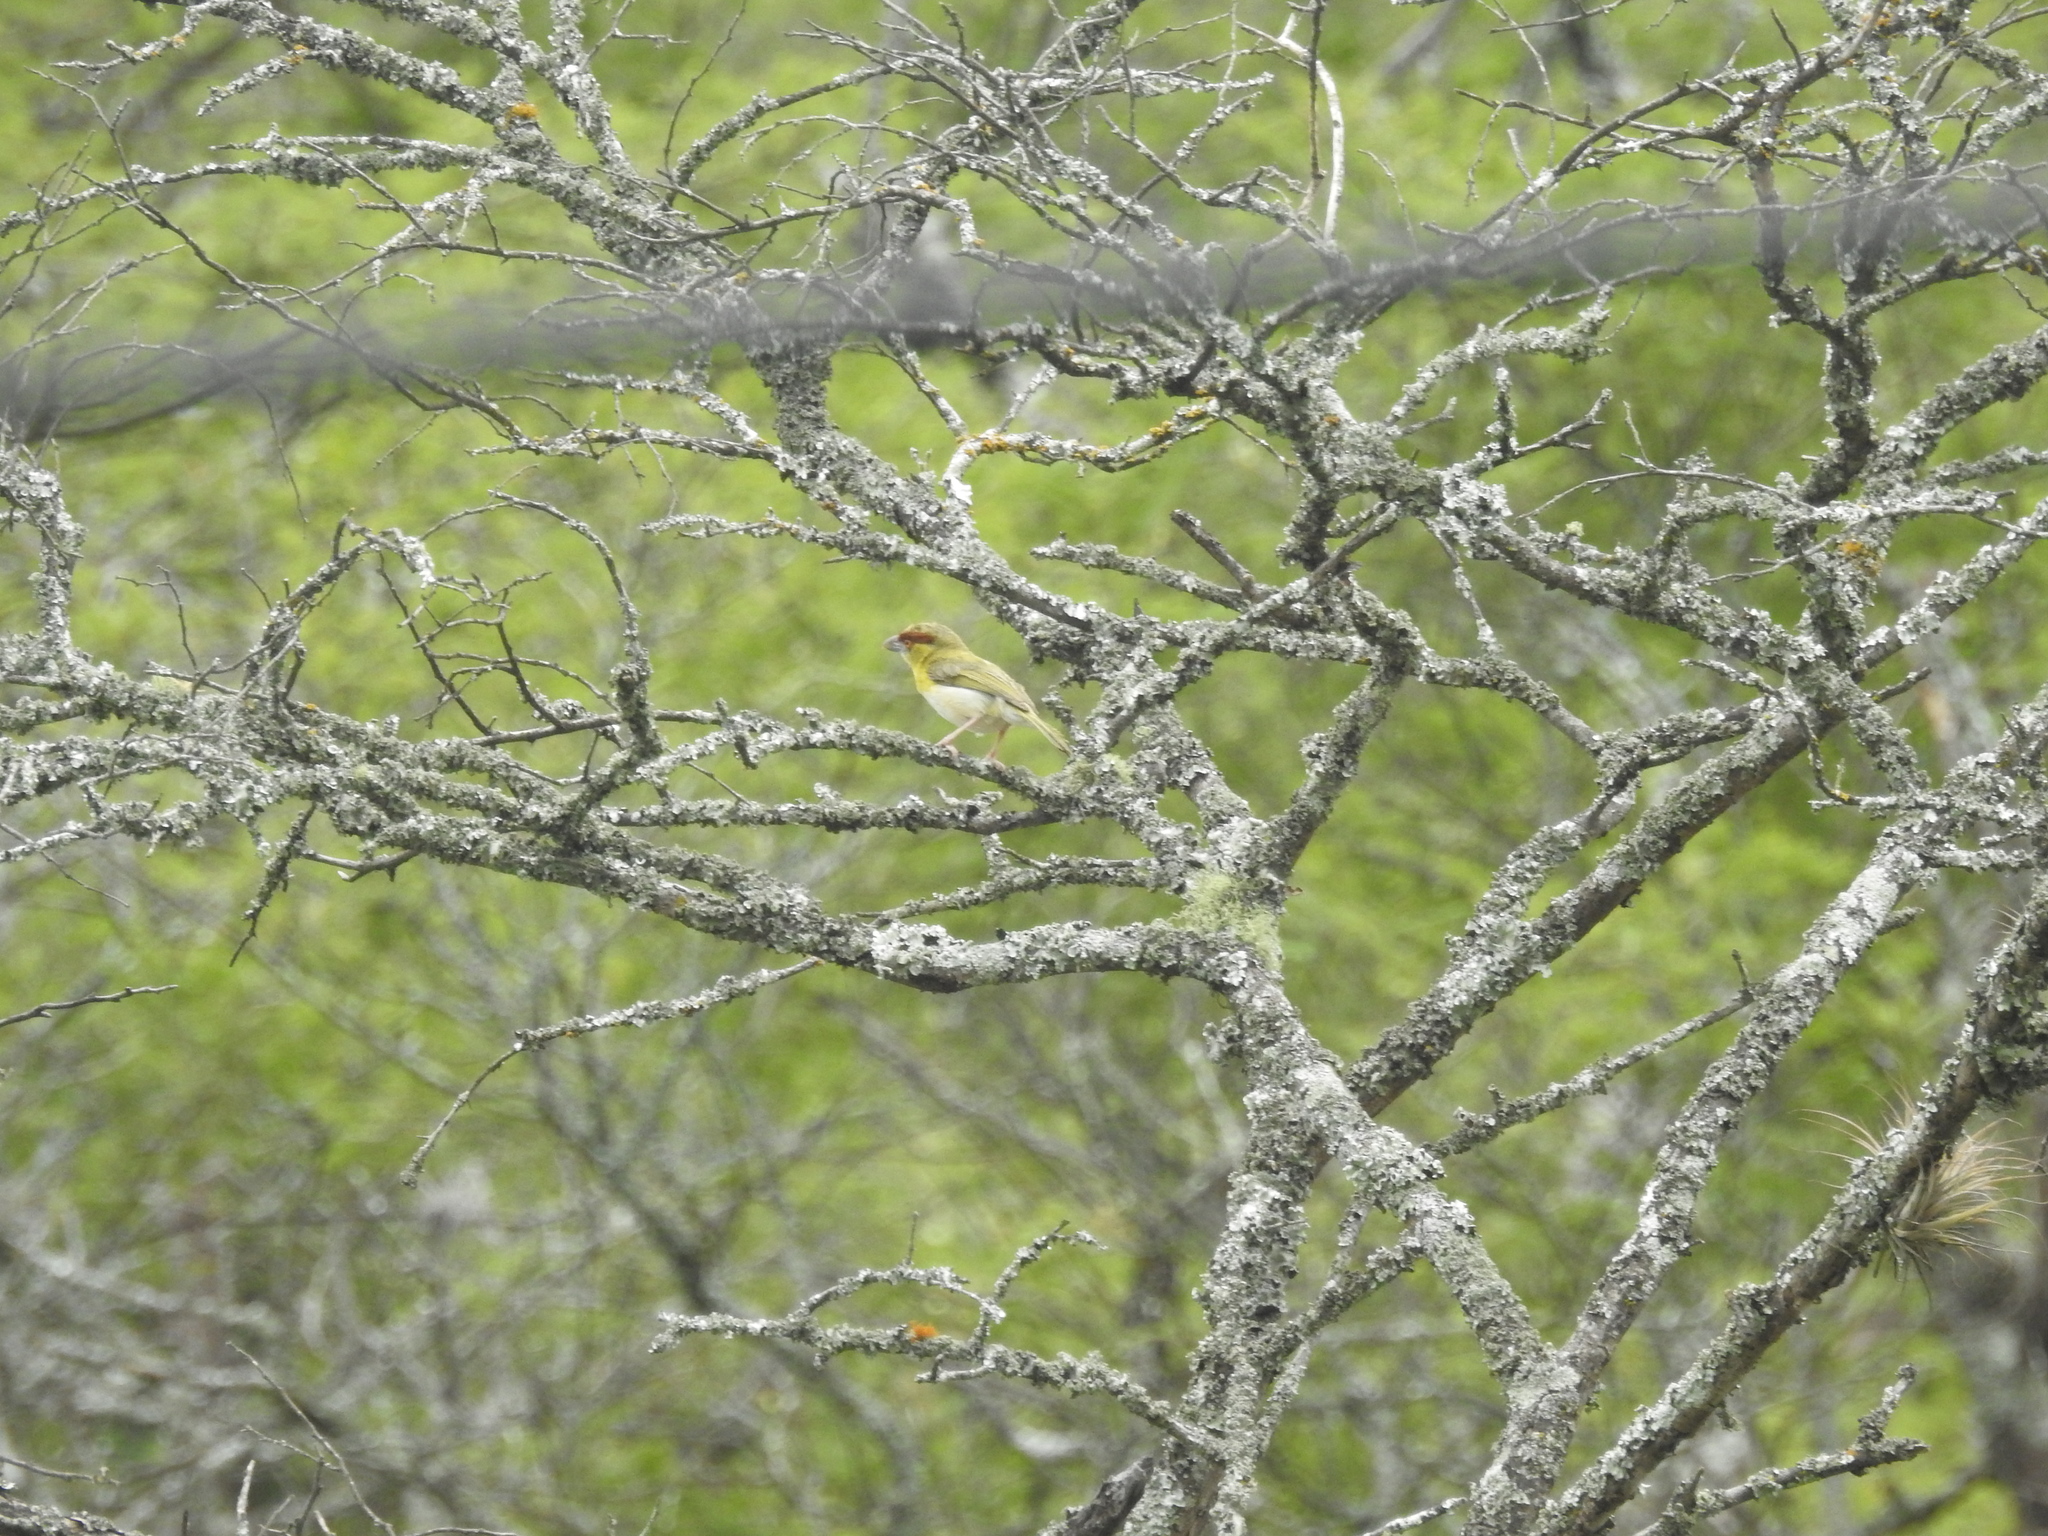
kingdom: Animalia
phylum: Chordata
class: Aves
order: Passeriformes
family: Vireonidae
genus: Cyclarhis
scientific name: Cyclarhis gujanensis
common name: Rufous-browed peppershrike
